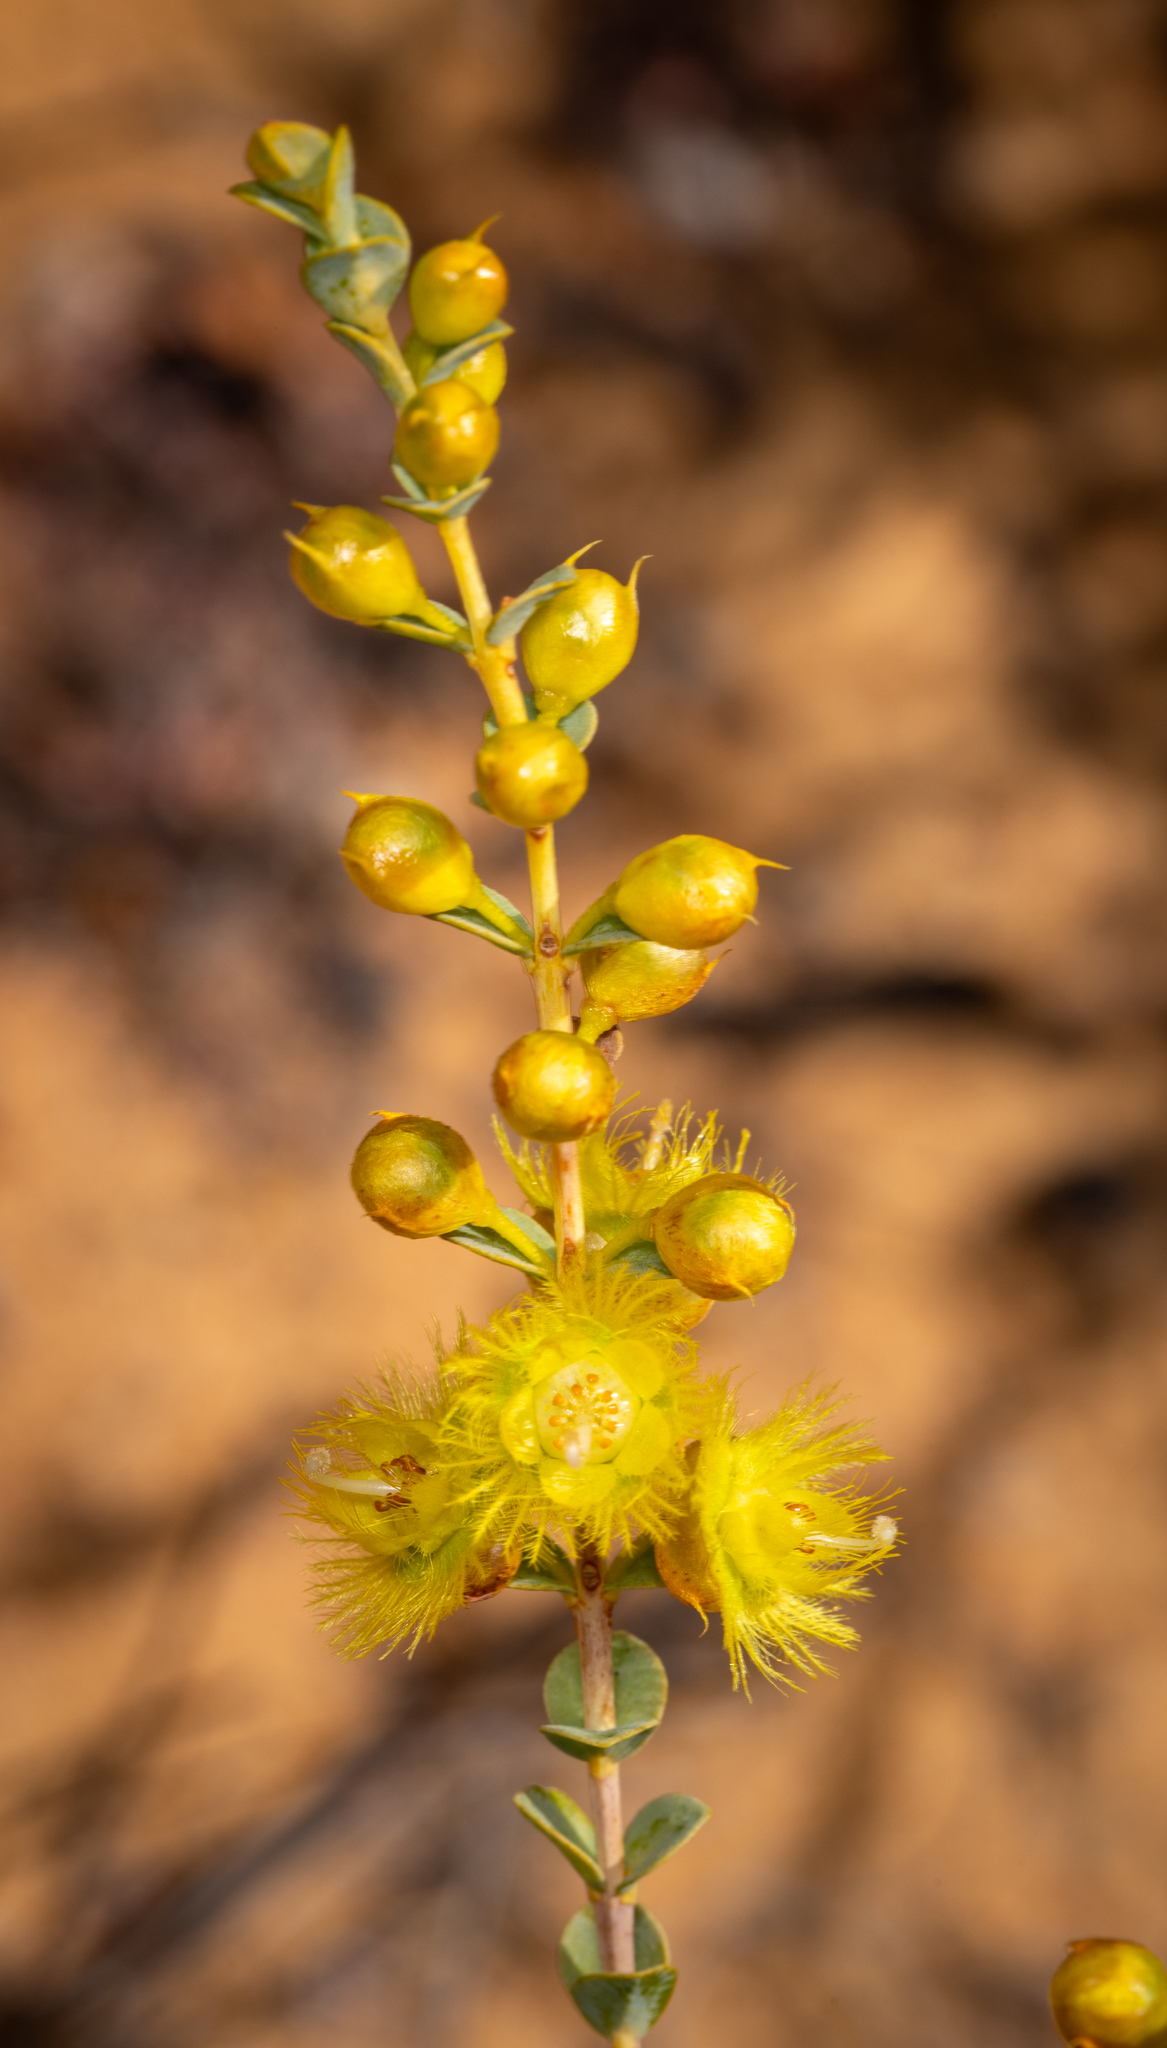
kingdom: Plantae
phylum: Tracheophyta
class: Magnoliopsida
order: Myrtales
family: Myrtaceae
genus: Verticordia
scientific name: Verticordia chrysostachys
